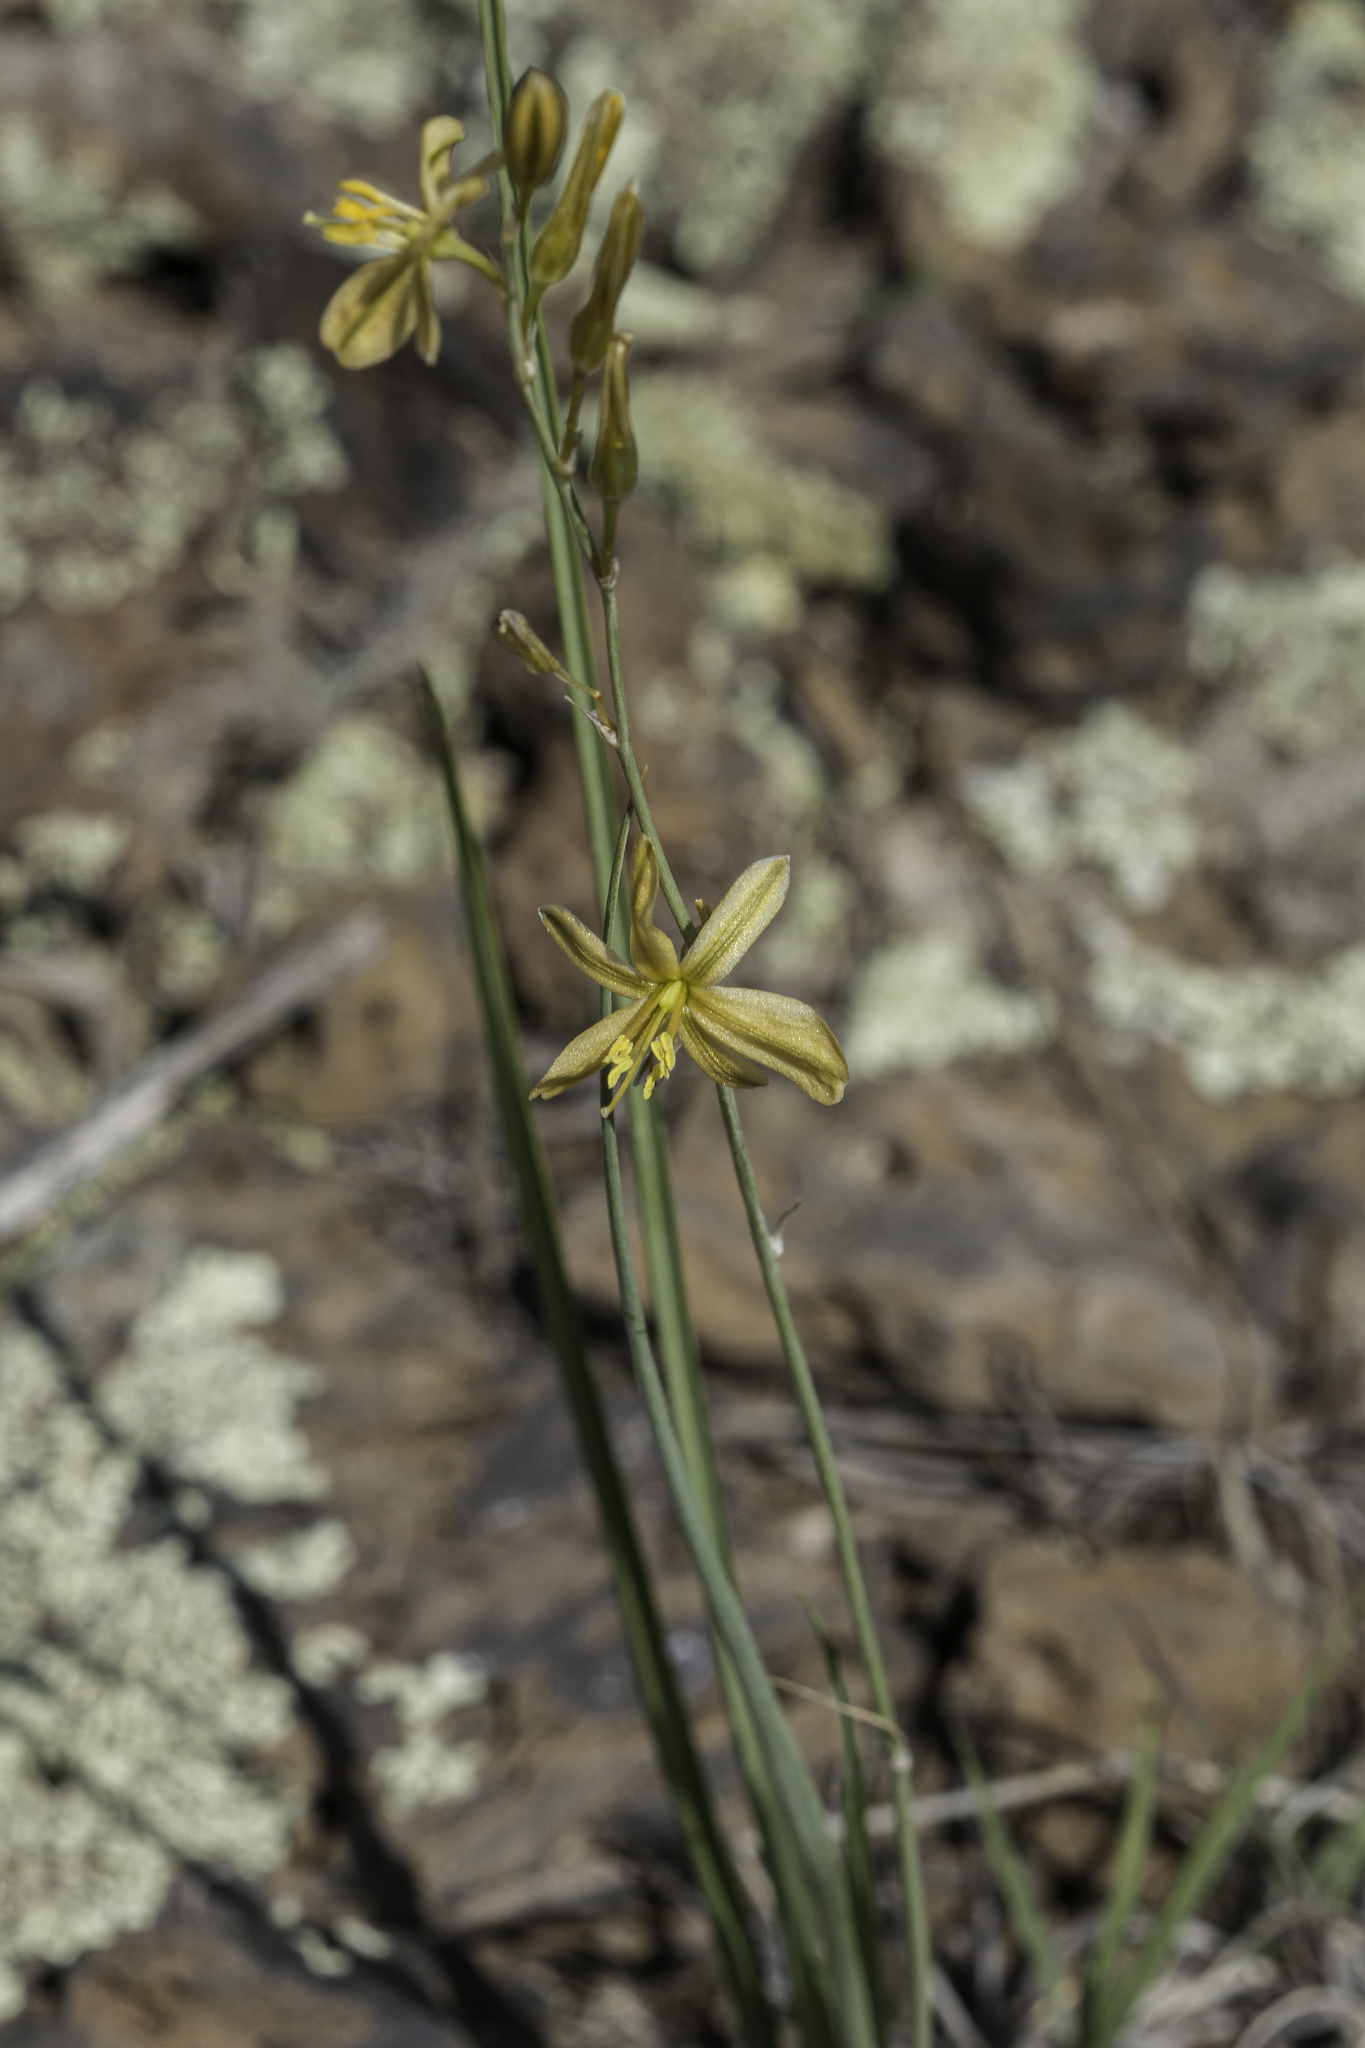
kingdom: Plantae
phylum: Tracheophyta
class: Liliopsida
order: Asparagales
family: Asparagaceae
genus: Echeandia
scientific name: Echeandia flavescens
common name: Amberlily
